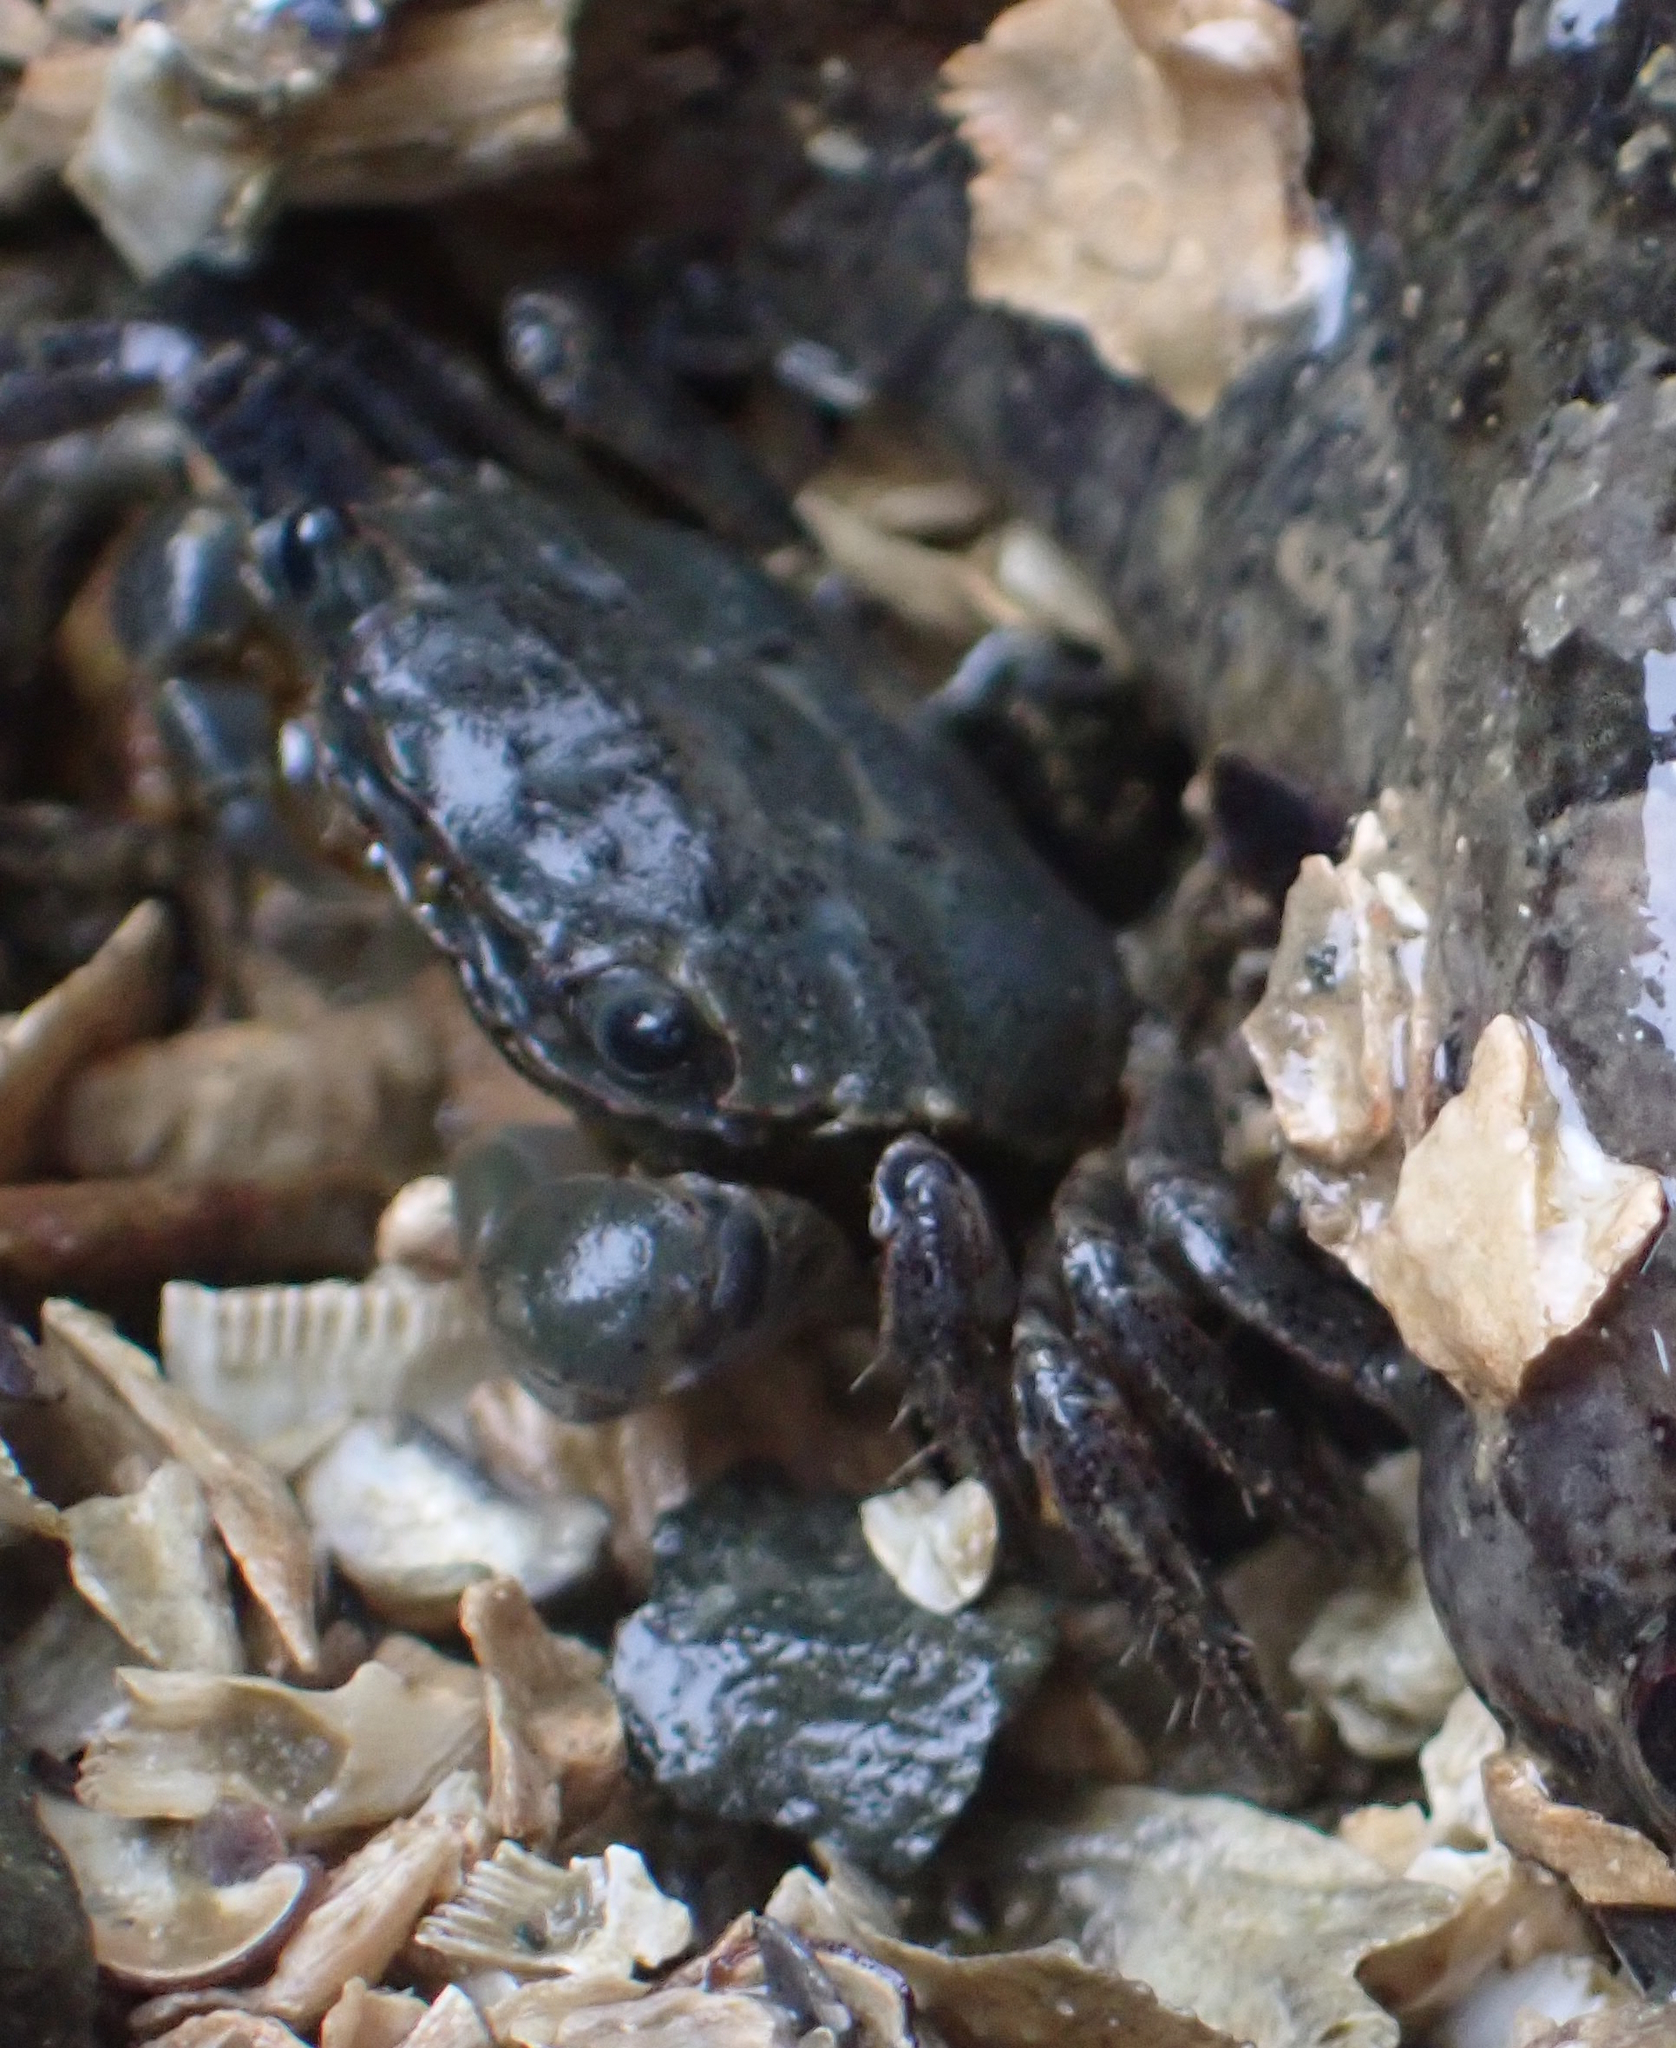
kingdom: Animalia
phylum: Arthropoda
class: Malacostraca
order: Decapoda
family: Varunidae
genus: Hemigrapsus
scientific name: Hemigrapsus oregonensis
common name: Yellow shore crab
